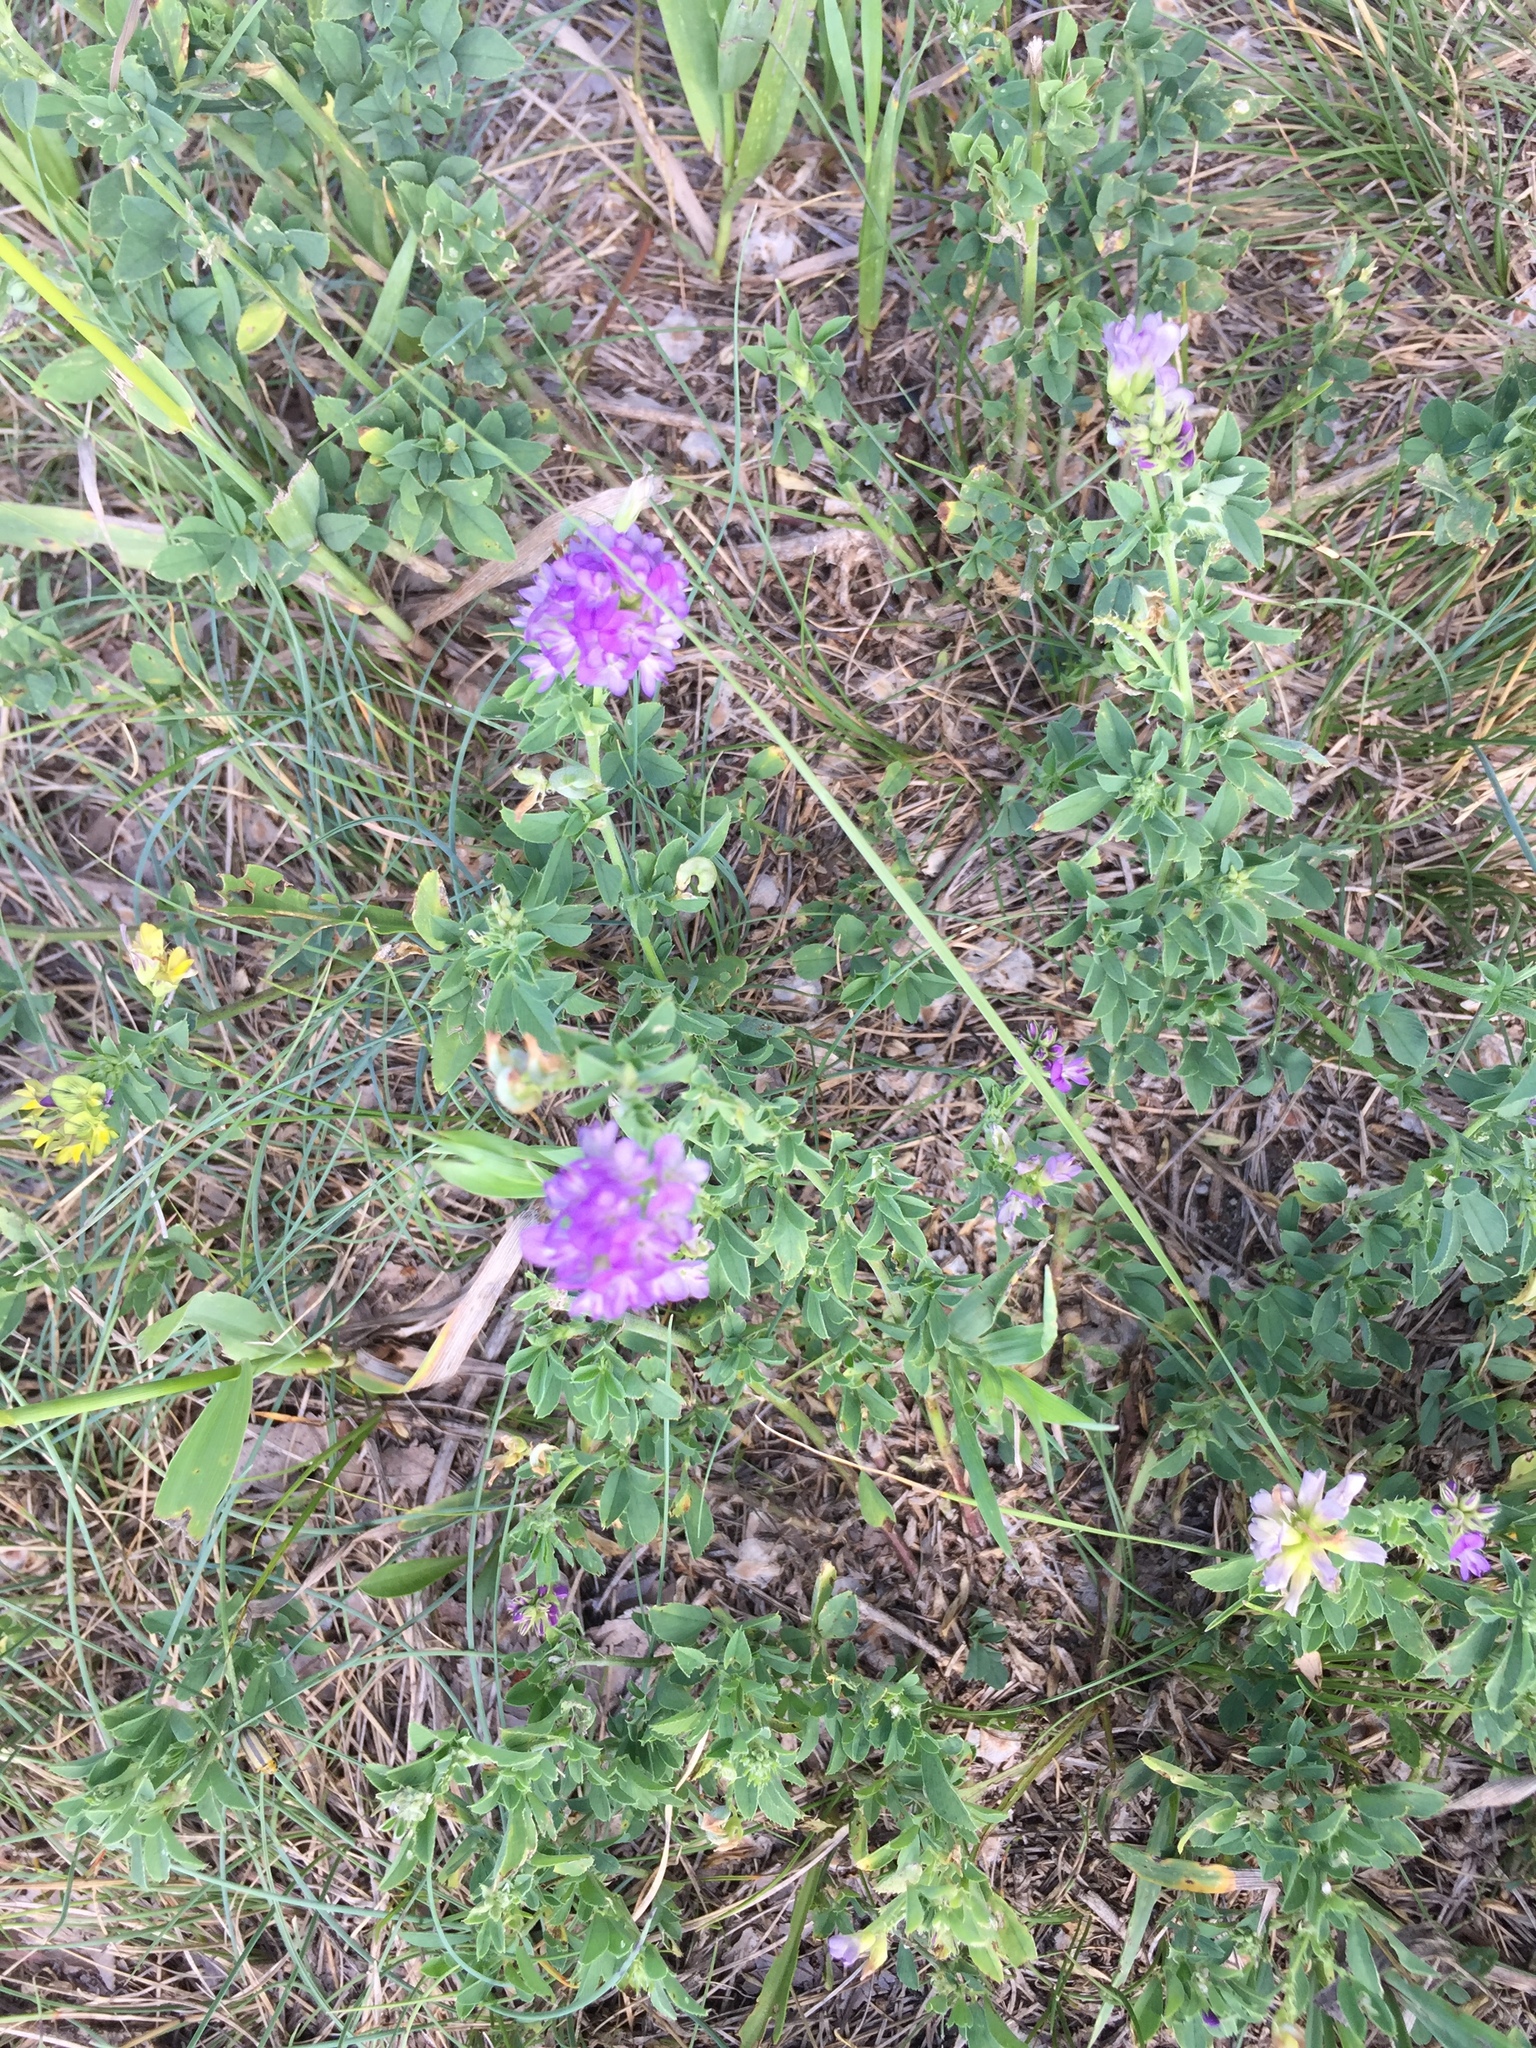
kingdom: Plantae
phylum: Tracheophyta
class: Magnoliopsida
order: Fabales
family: Fabaceae
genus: Medicago
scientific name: Medicago sativa
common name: Alfalfa
